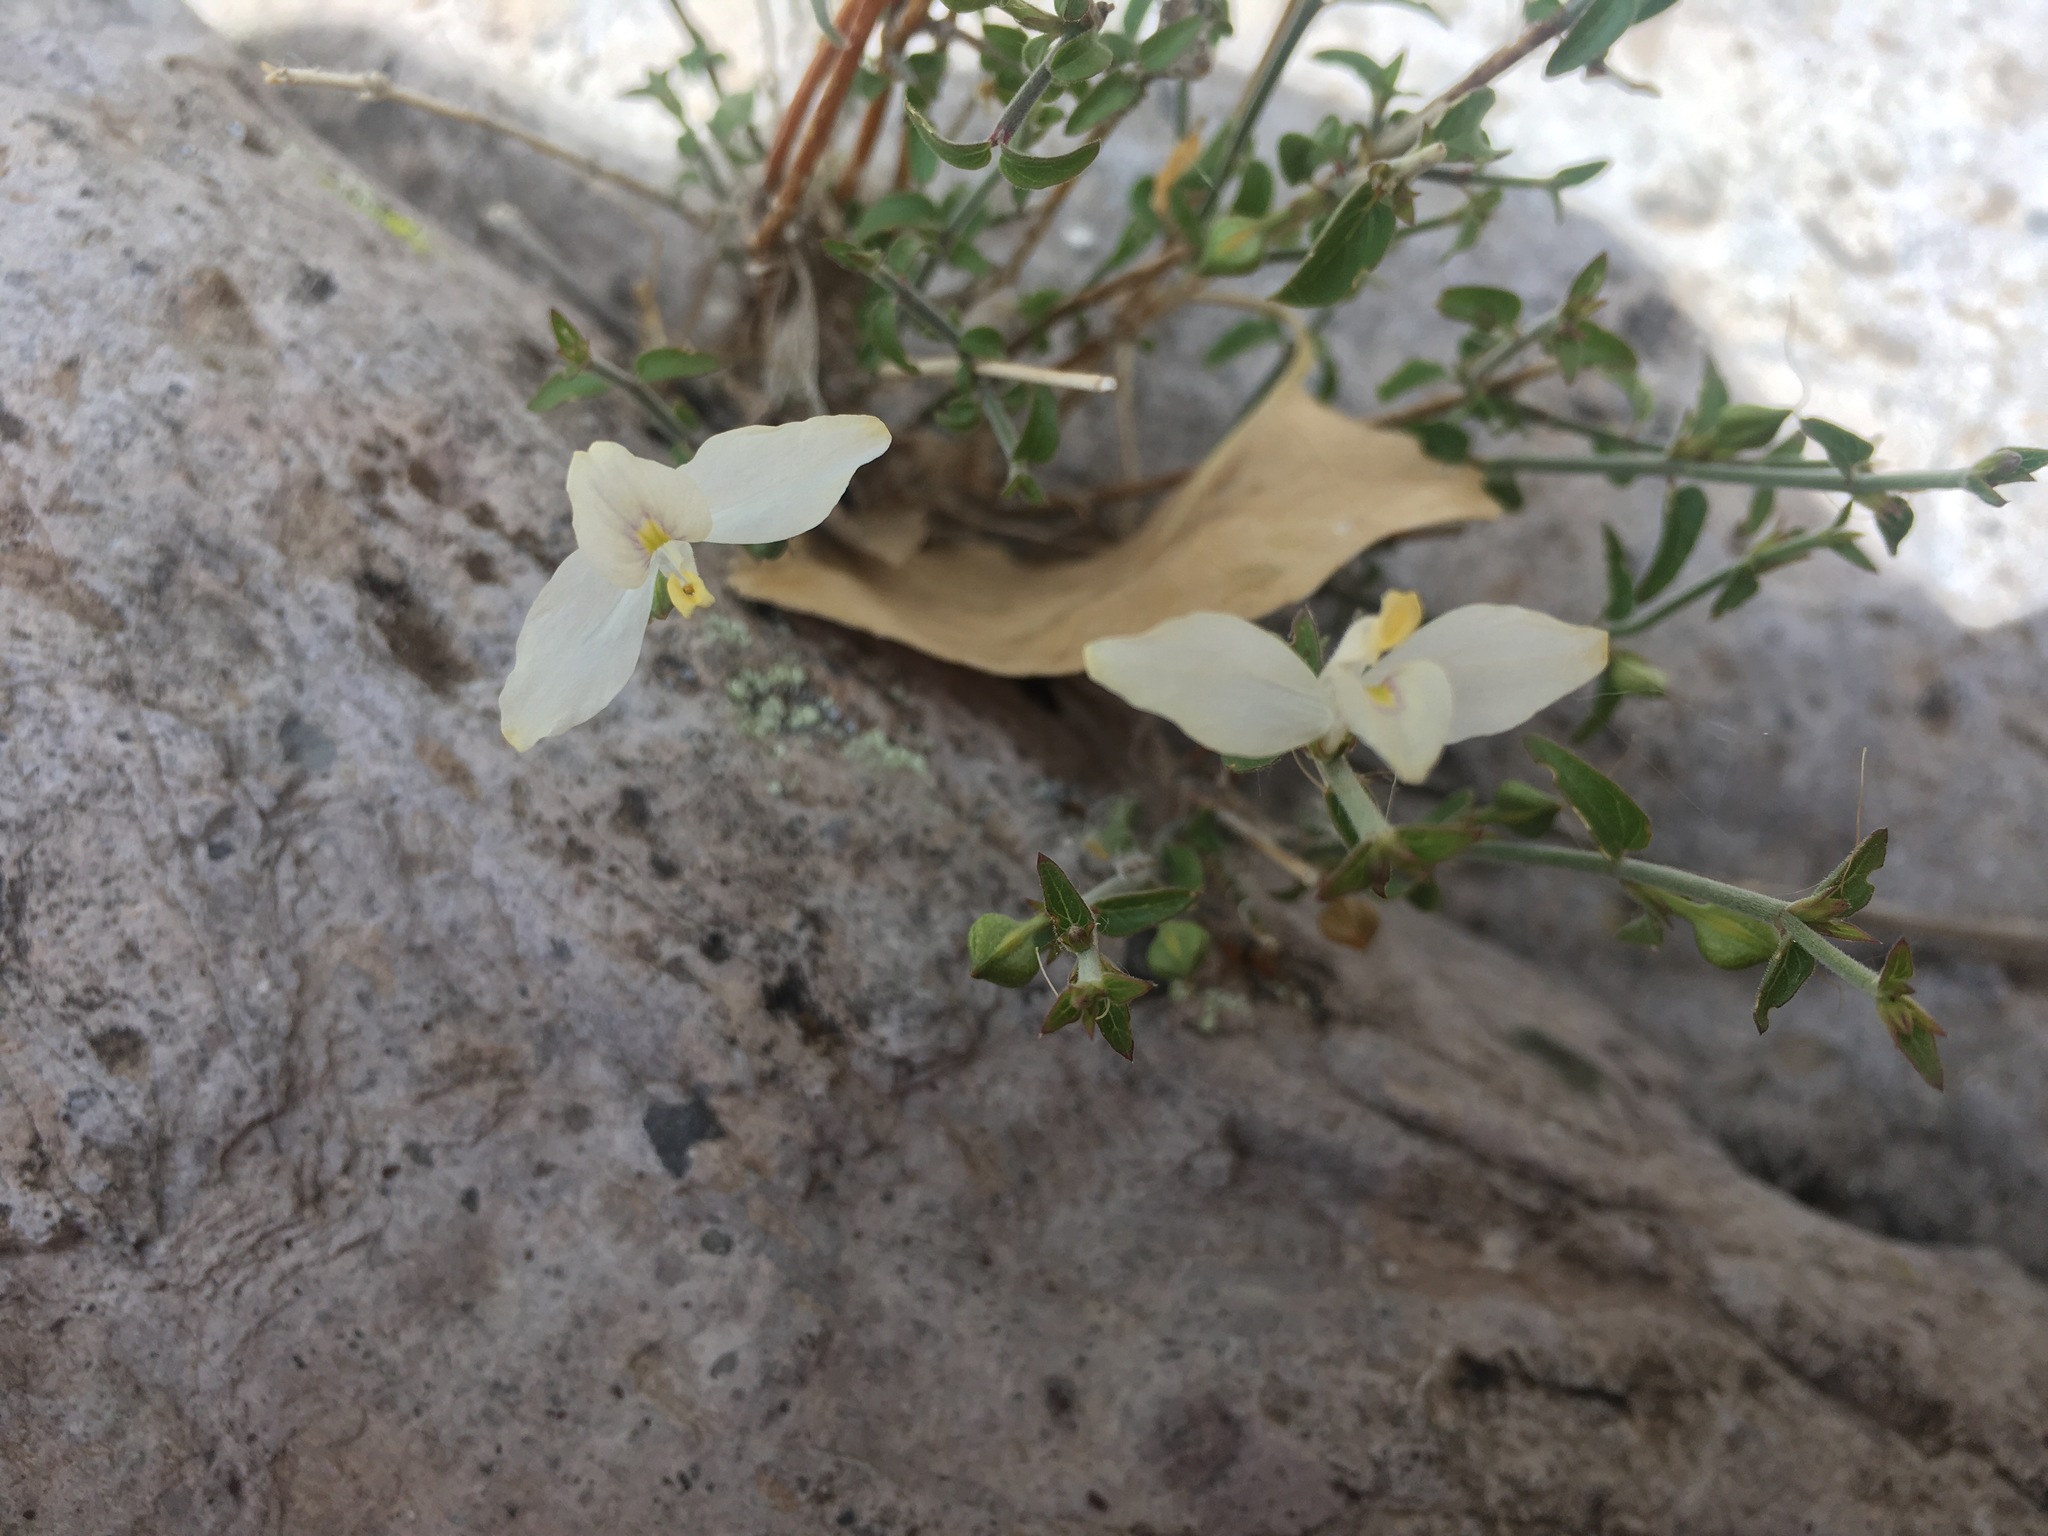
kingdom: Plantae
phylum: Tracheophyta
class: Magnoliopsida
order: Lamiales
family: Acanthaceae
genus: Carlowrightia
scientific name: Carlowrightia arizonica
